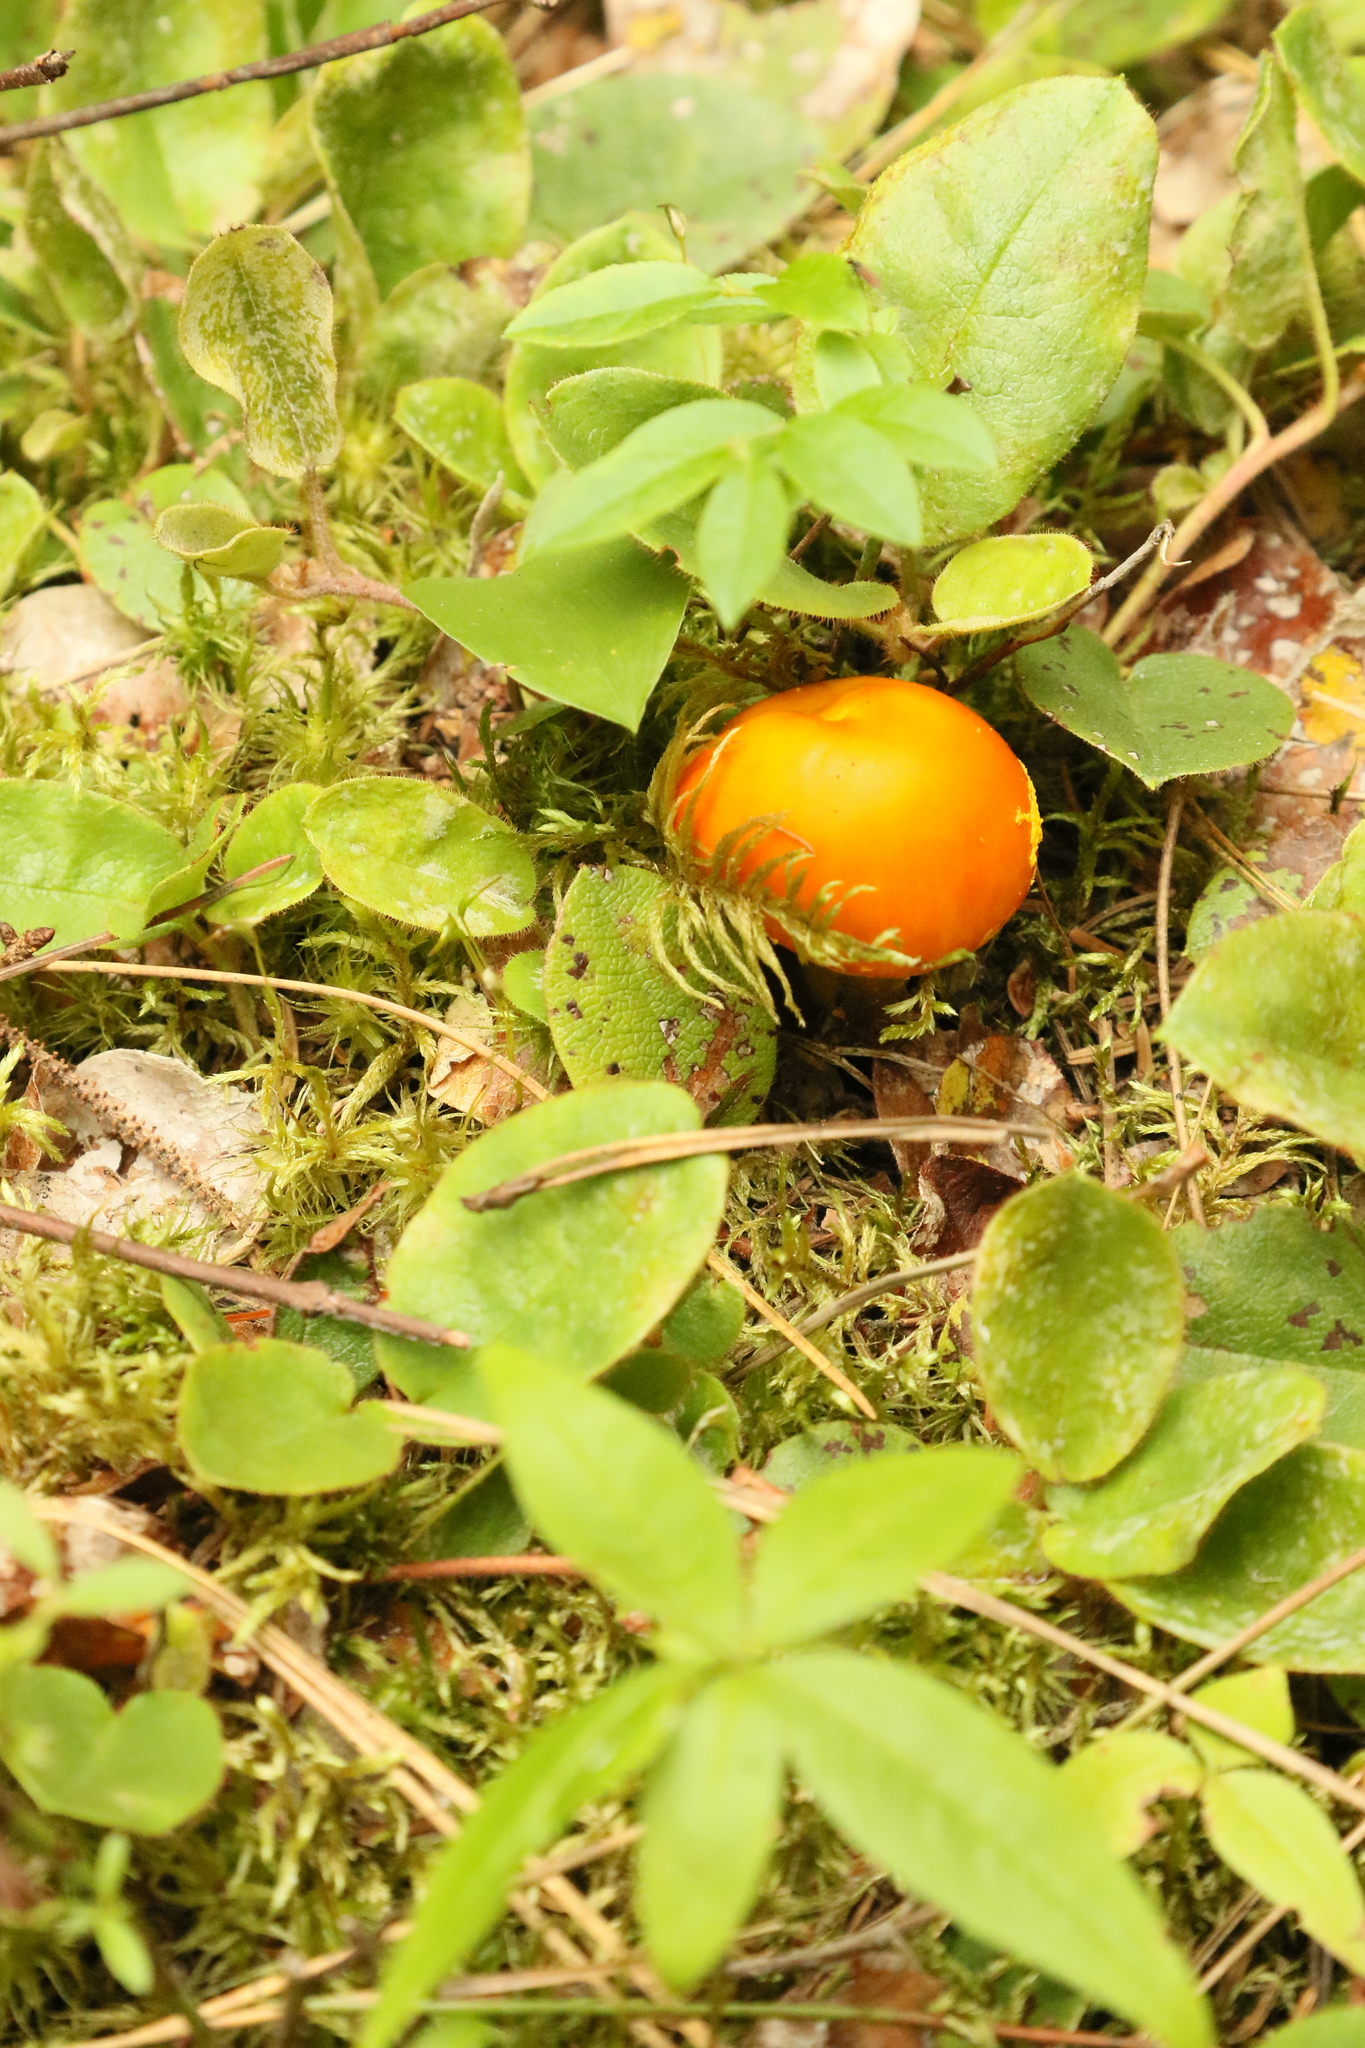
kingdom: Fungi
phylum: Basidiomycota
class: Agaricomycetes
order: Agaricales
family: Amanitaceae
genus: Amanita
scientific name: Amanita flavoconia
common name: Yellow patches
